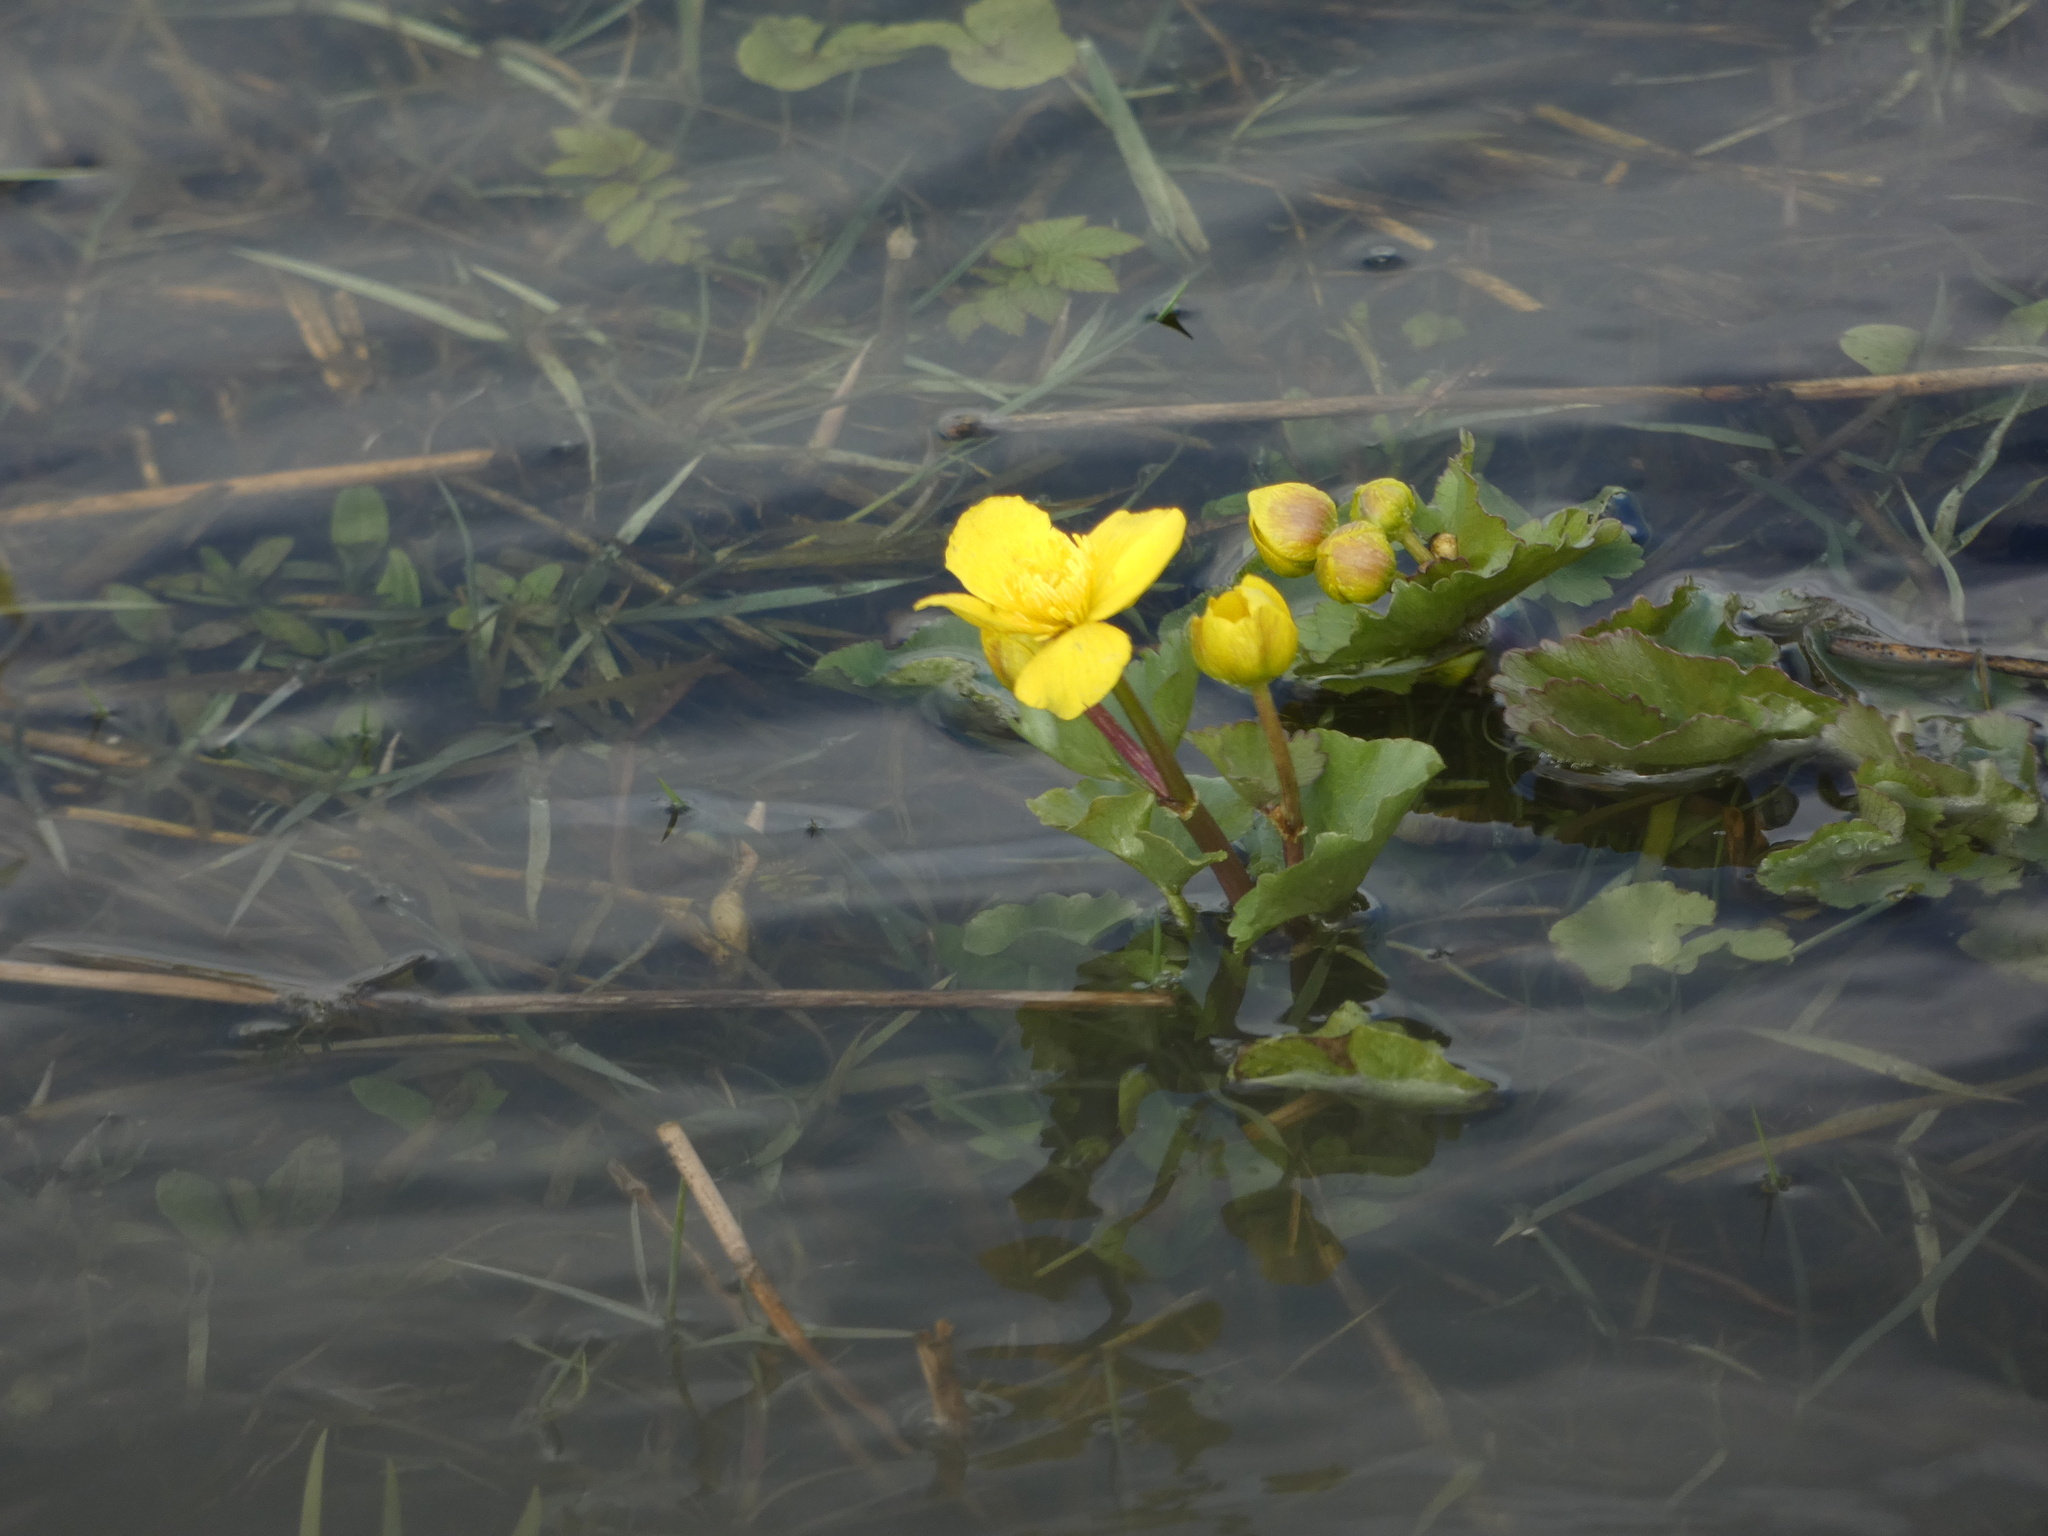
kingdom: Plantae
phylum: Tracheophyta
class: Magnoliopsida
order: Ranunculales
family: Ranunculaceae
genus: Caltha
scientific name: Caltha palustris
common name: Marsh marigold
